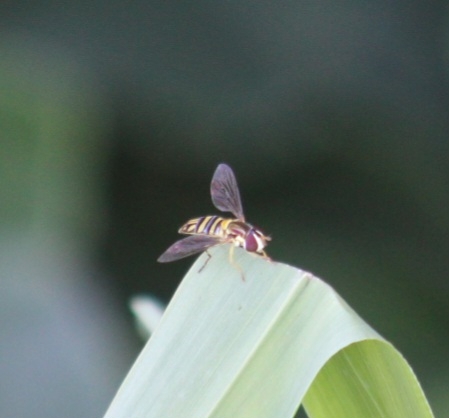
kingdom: Animalia
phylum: Arthropoda
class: Insecta
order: Diptera
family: Syrphidae
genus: Allograpta
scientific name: Allograpta obliqua
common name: Common oblique syrphid
